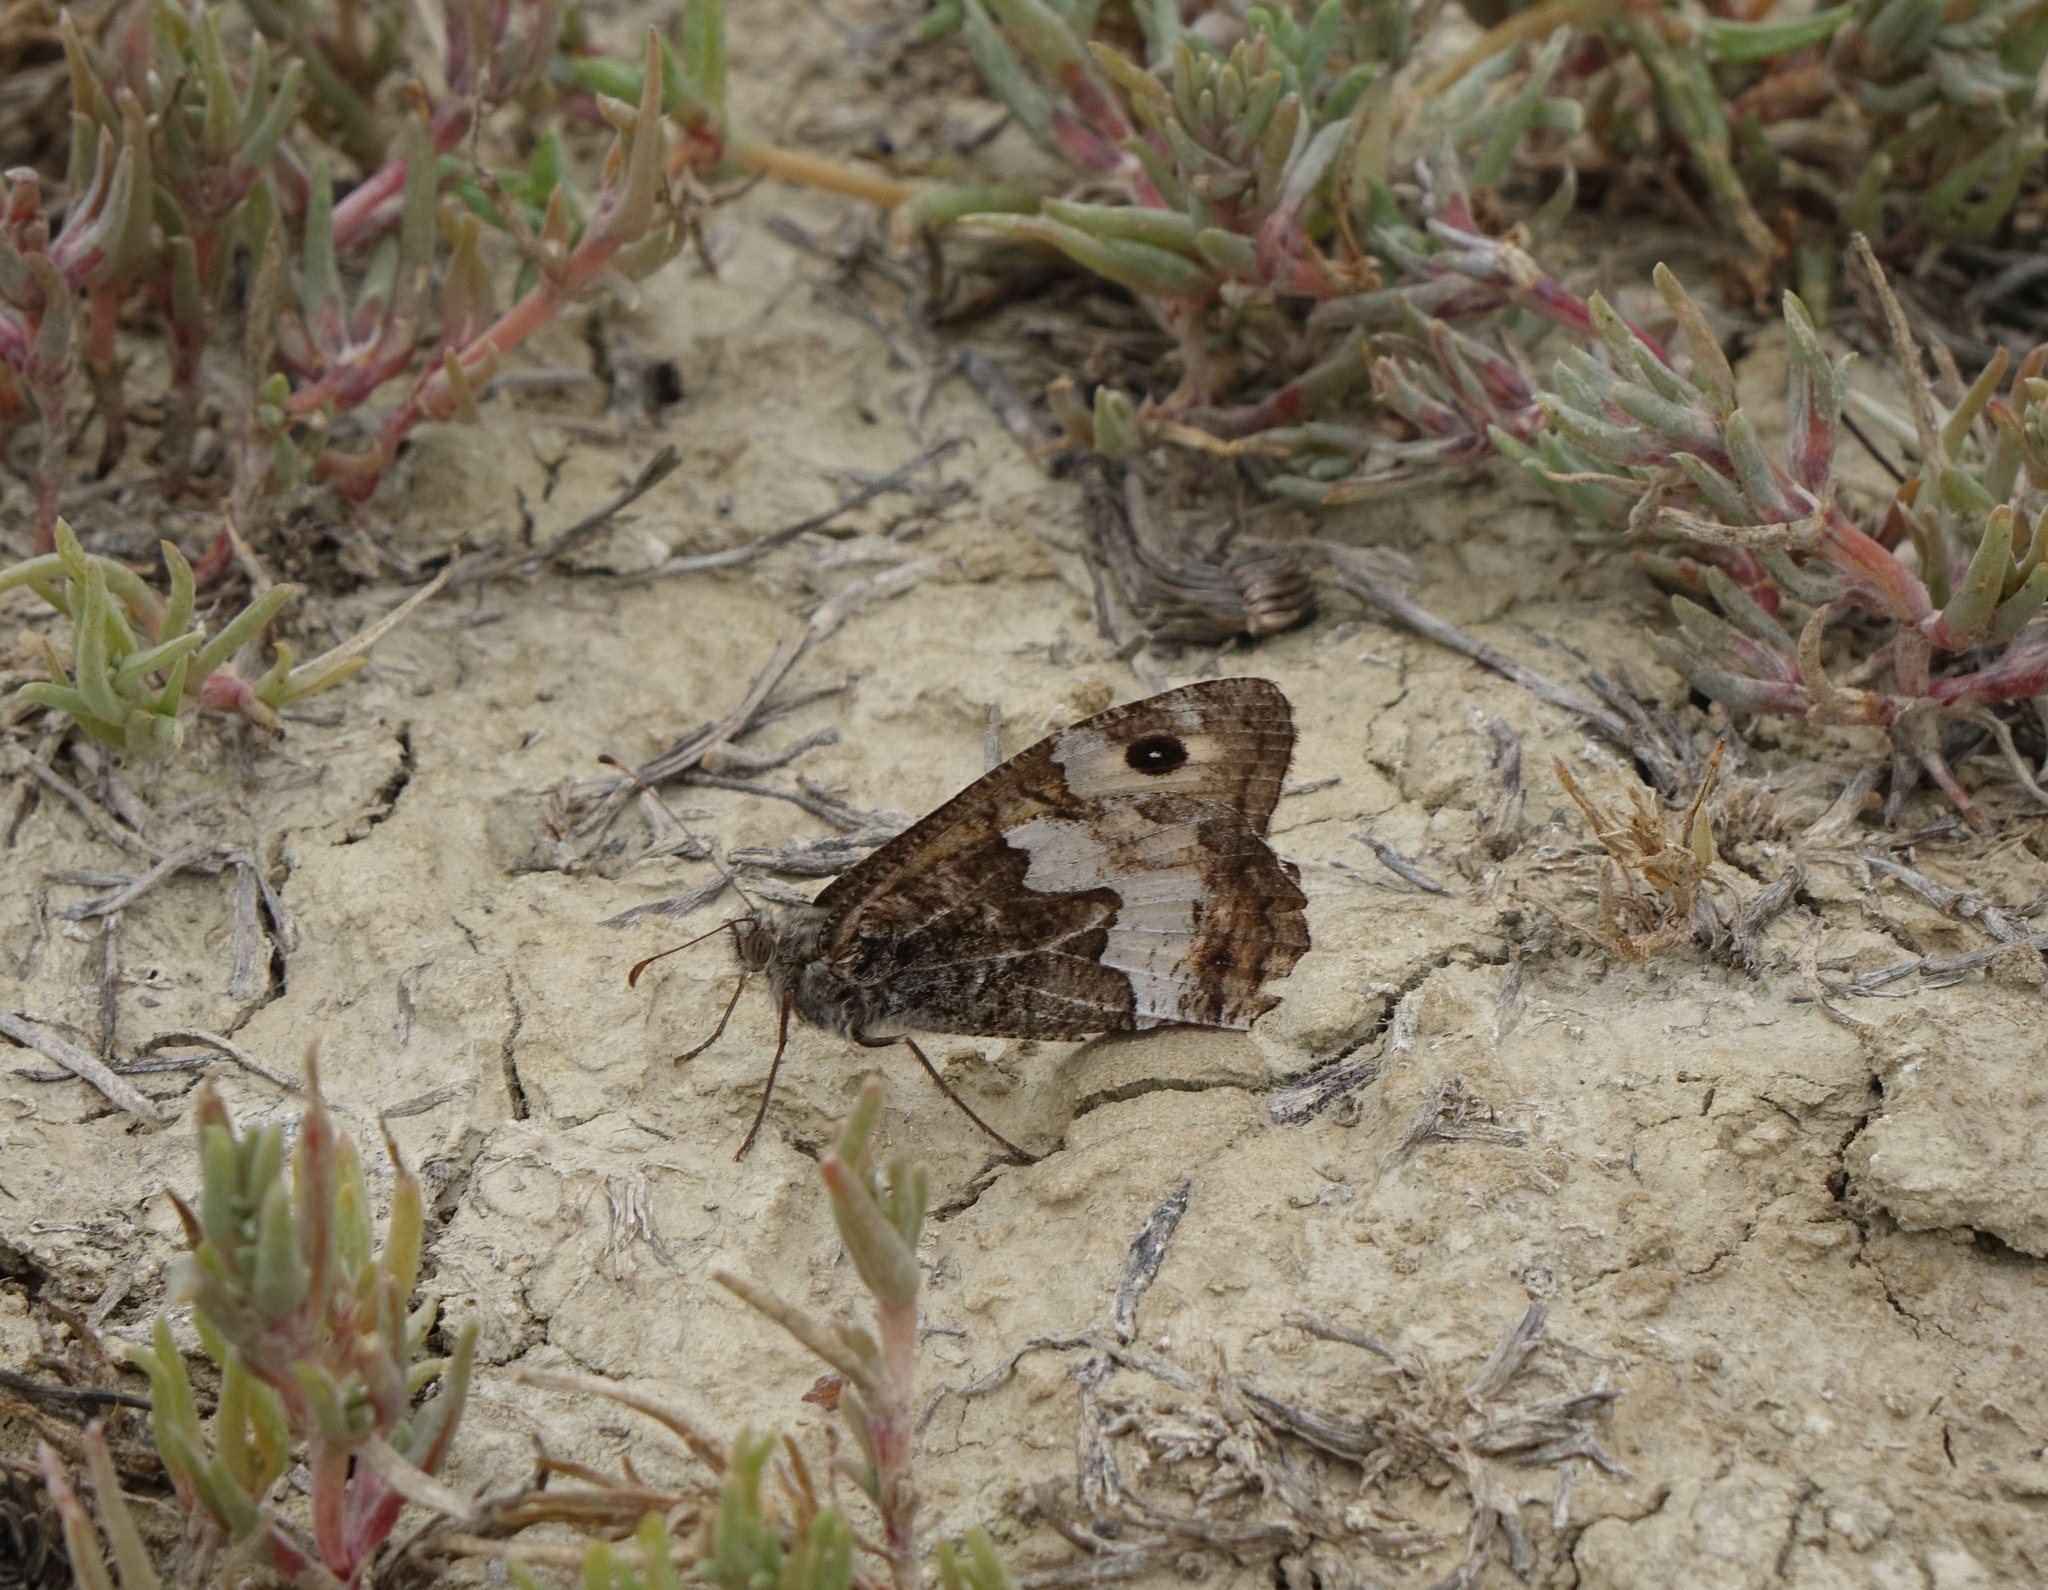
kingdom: Animalia
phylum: Arthropoda
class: Insecta
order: Lepidoptera
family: Nymphalidae
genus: Hipparchia
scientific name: Hipparchia pellucida
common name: Lesbos grayling
